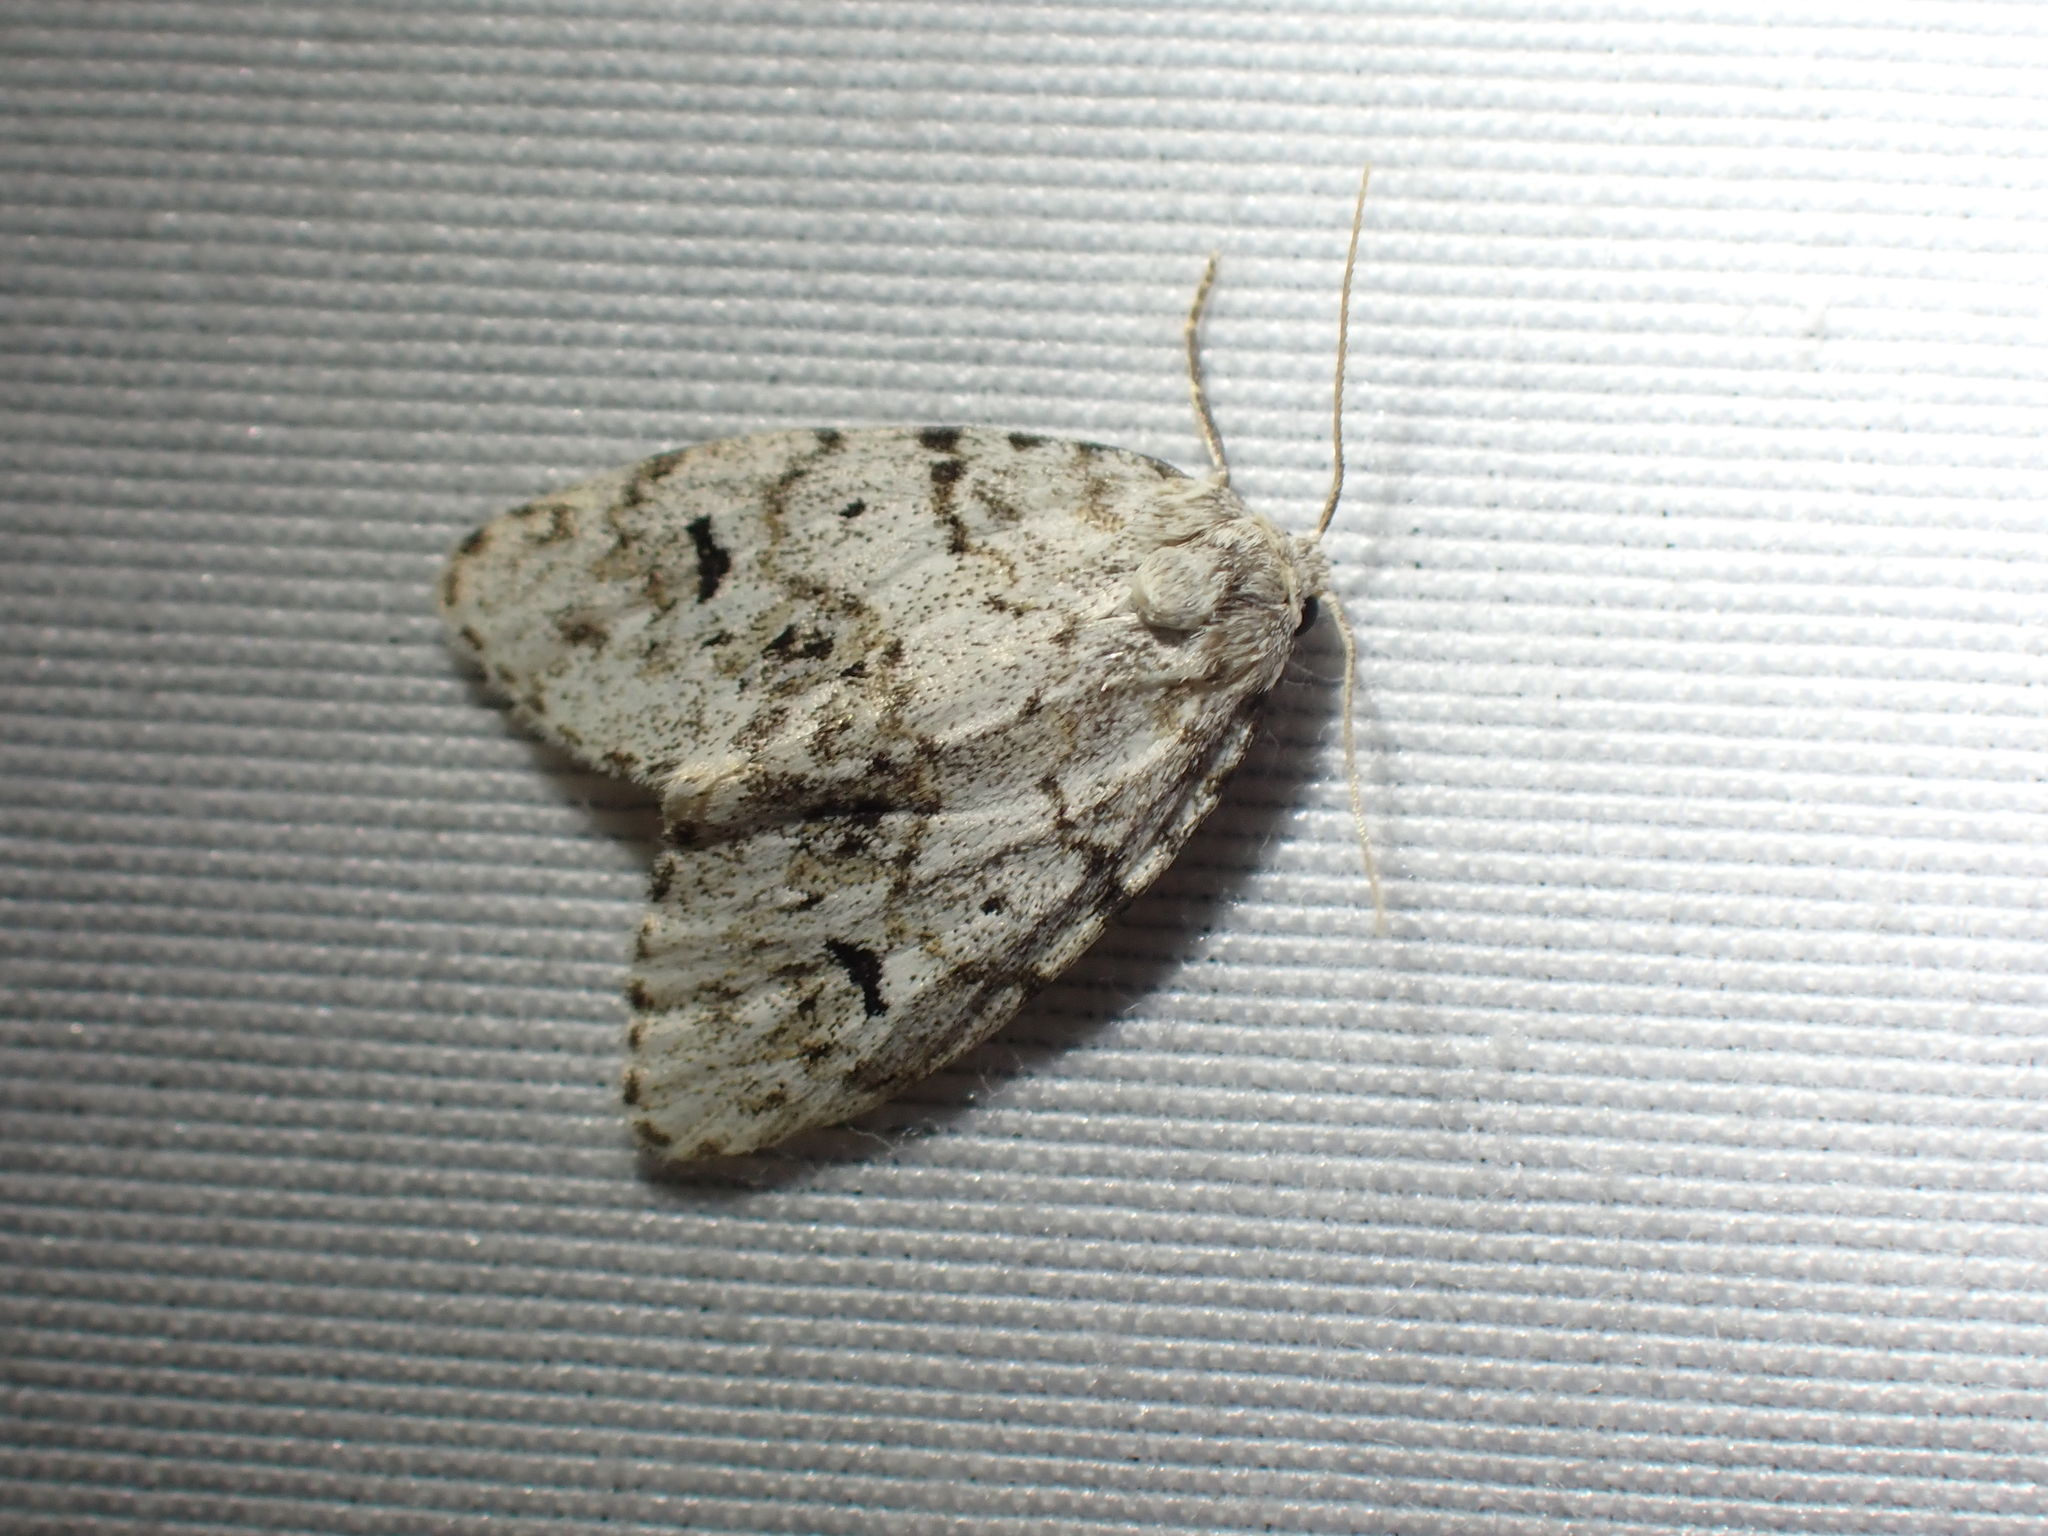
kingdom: Animalia
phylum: Arthropoda
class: Insecta
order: Lepidoptera
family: Erebidae
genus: Clemensia
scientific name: Clemensia umbrata
